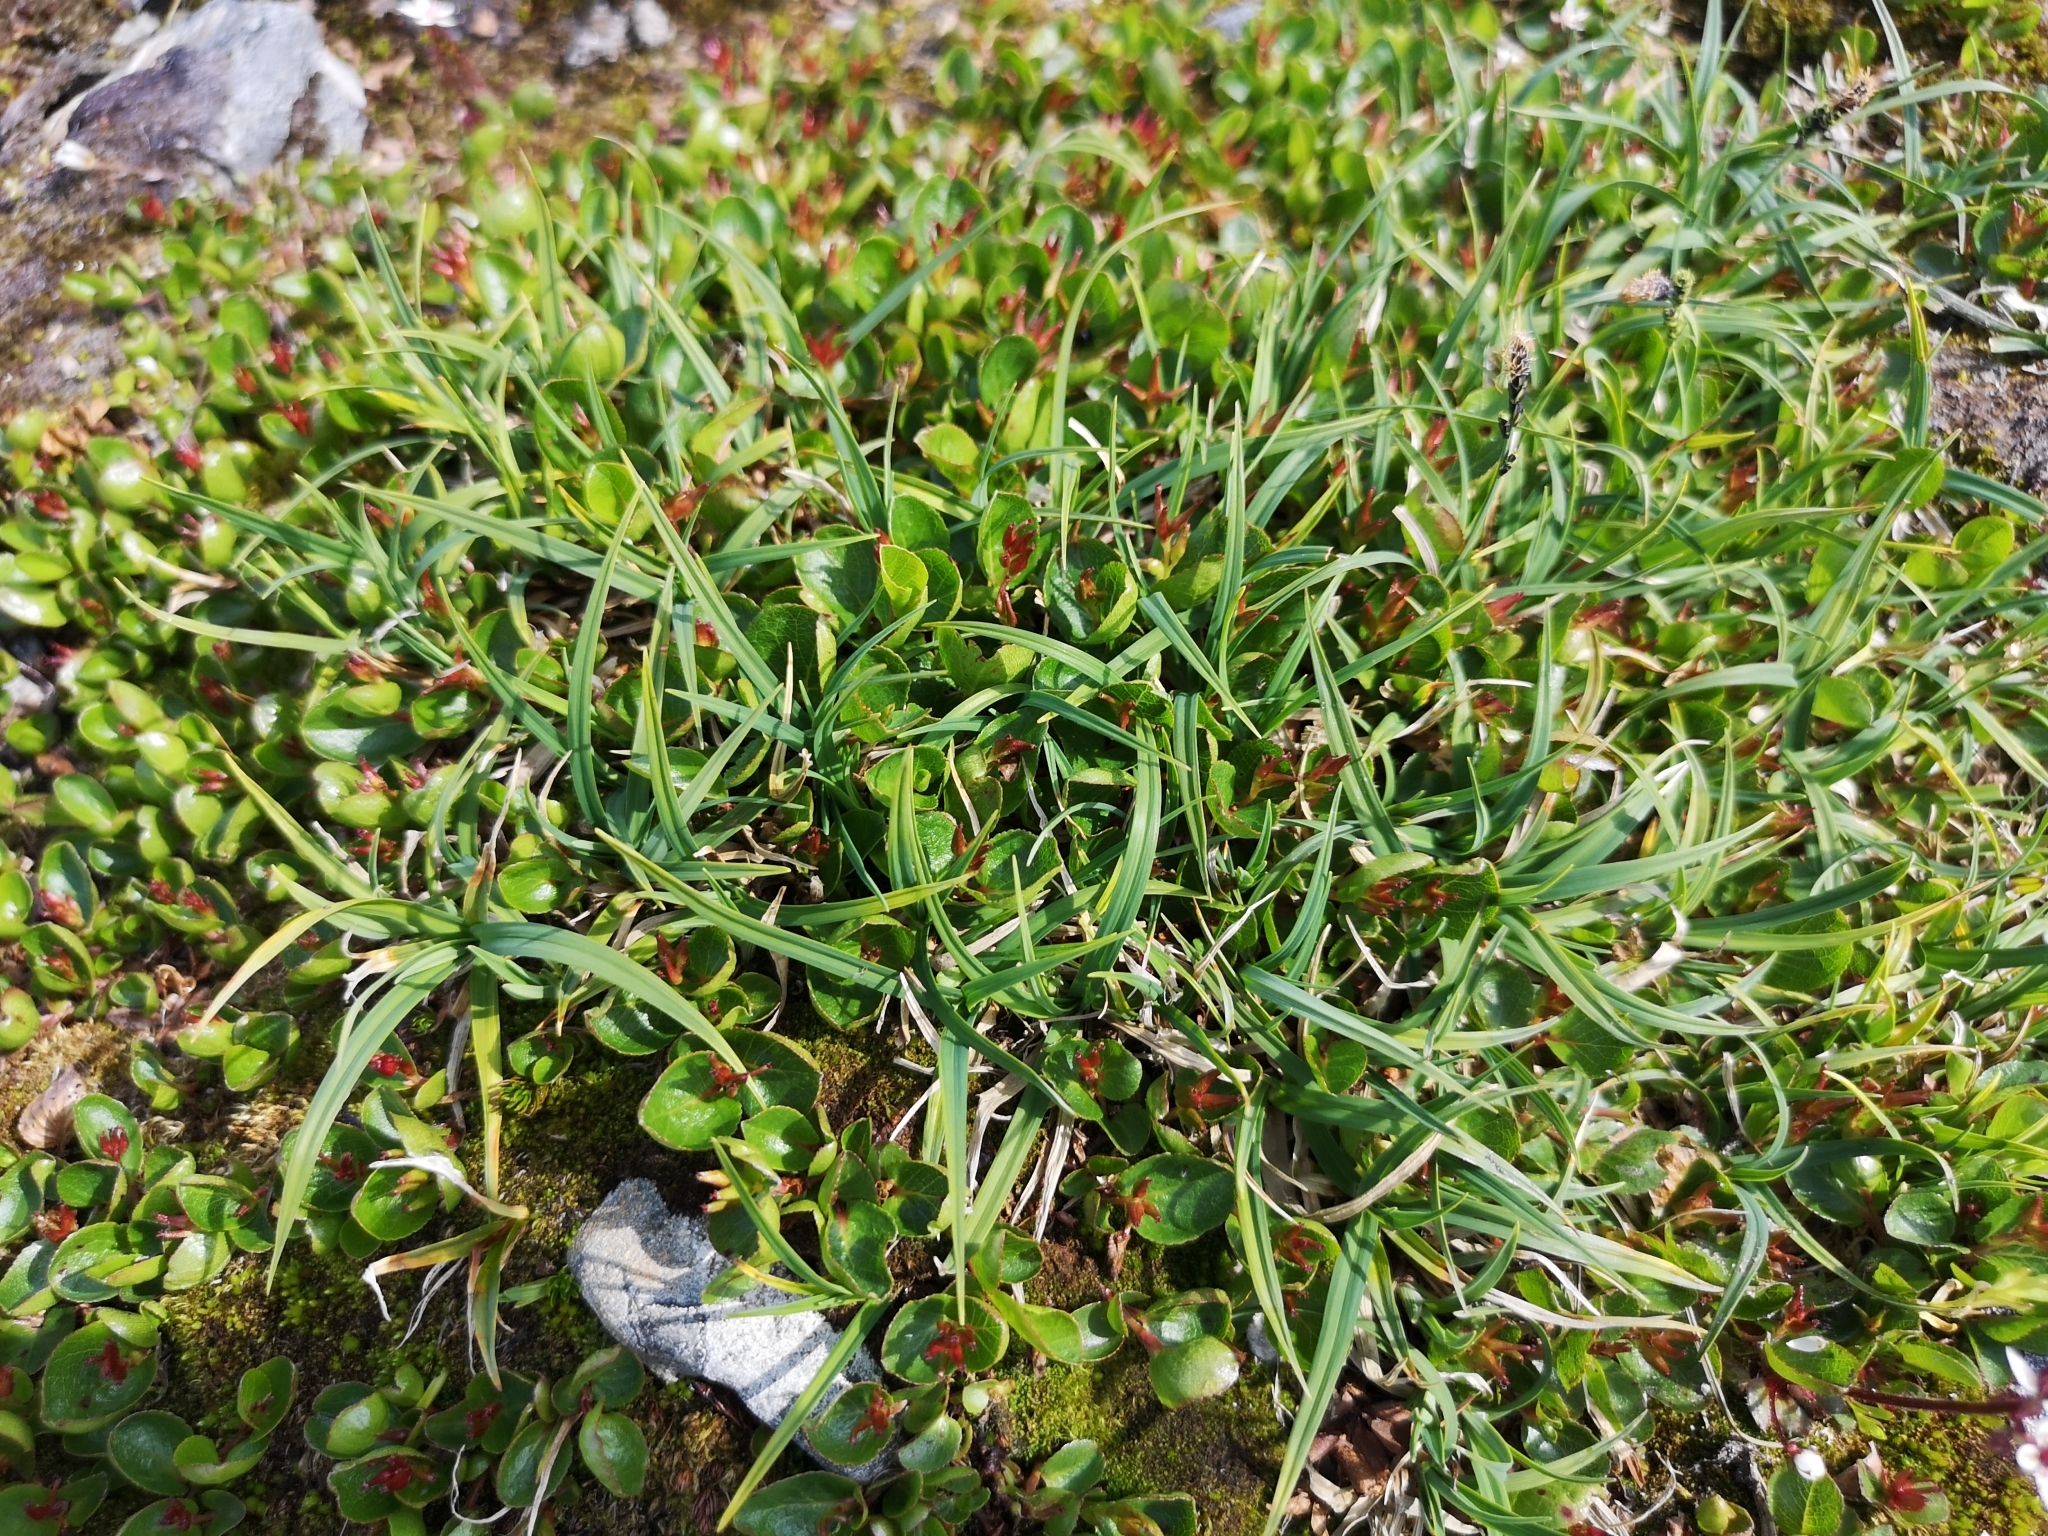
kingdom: Plantae
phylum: Tracheophyta
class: Liliopsida
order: Poales
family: Cyperaceae
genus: Carex
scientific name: Carex bigelowii
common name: Stiff sedge
